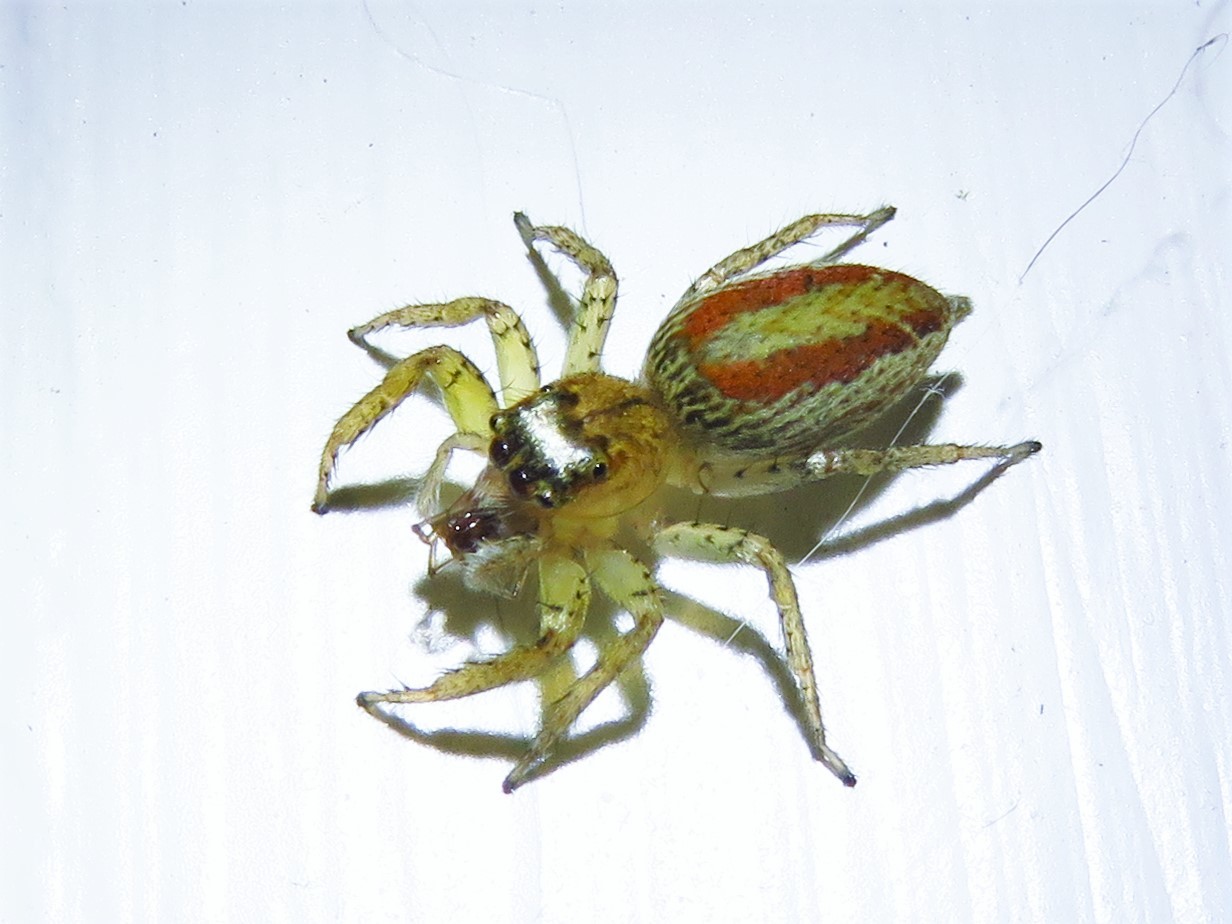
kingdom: Animalia
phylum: Arthropoda
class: Arachnida
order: Araneae
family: Salticidae
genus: Maevia
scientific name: Maevia inclemens
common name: Dimorphic jumper
